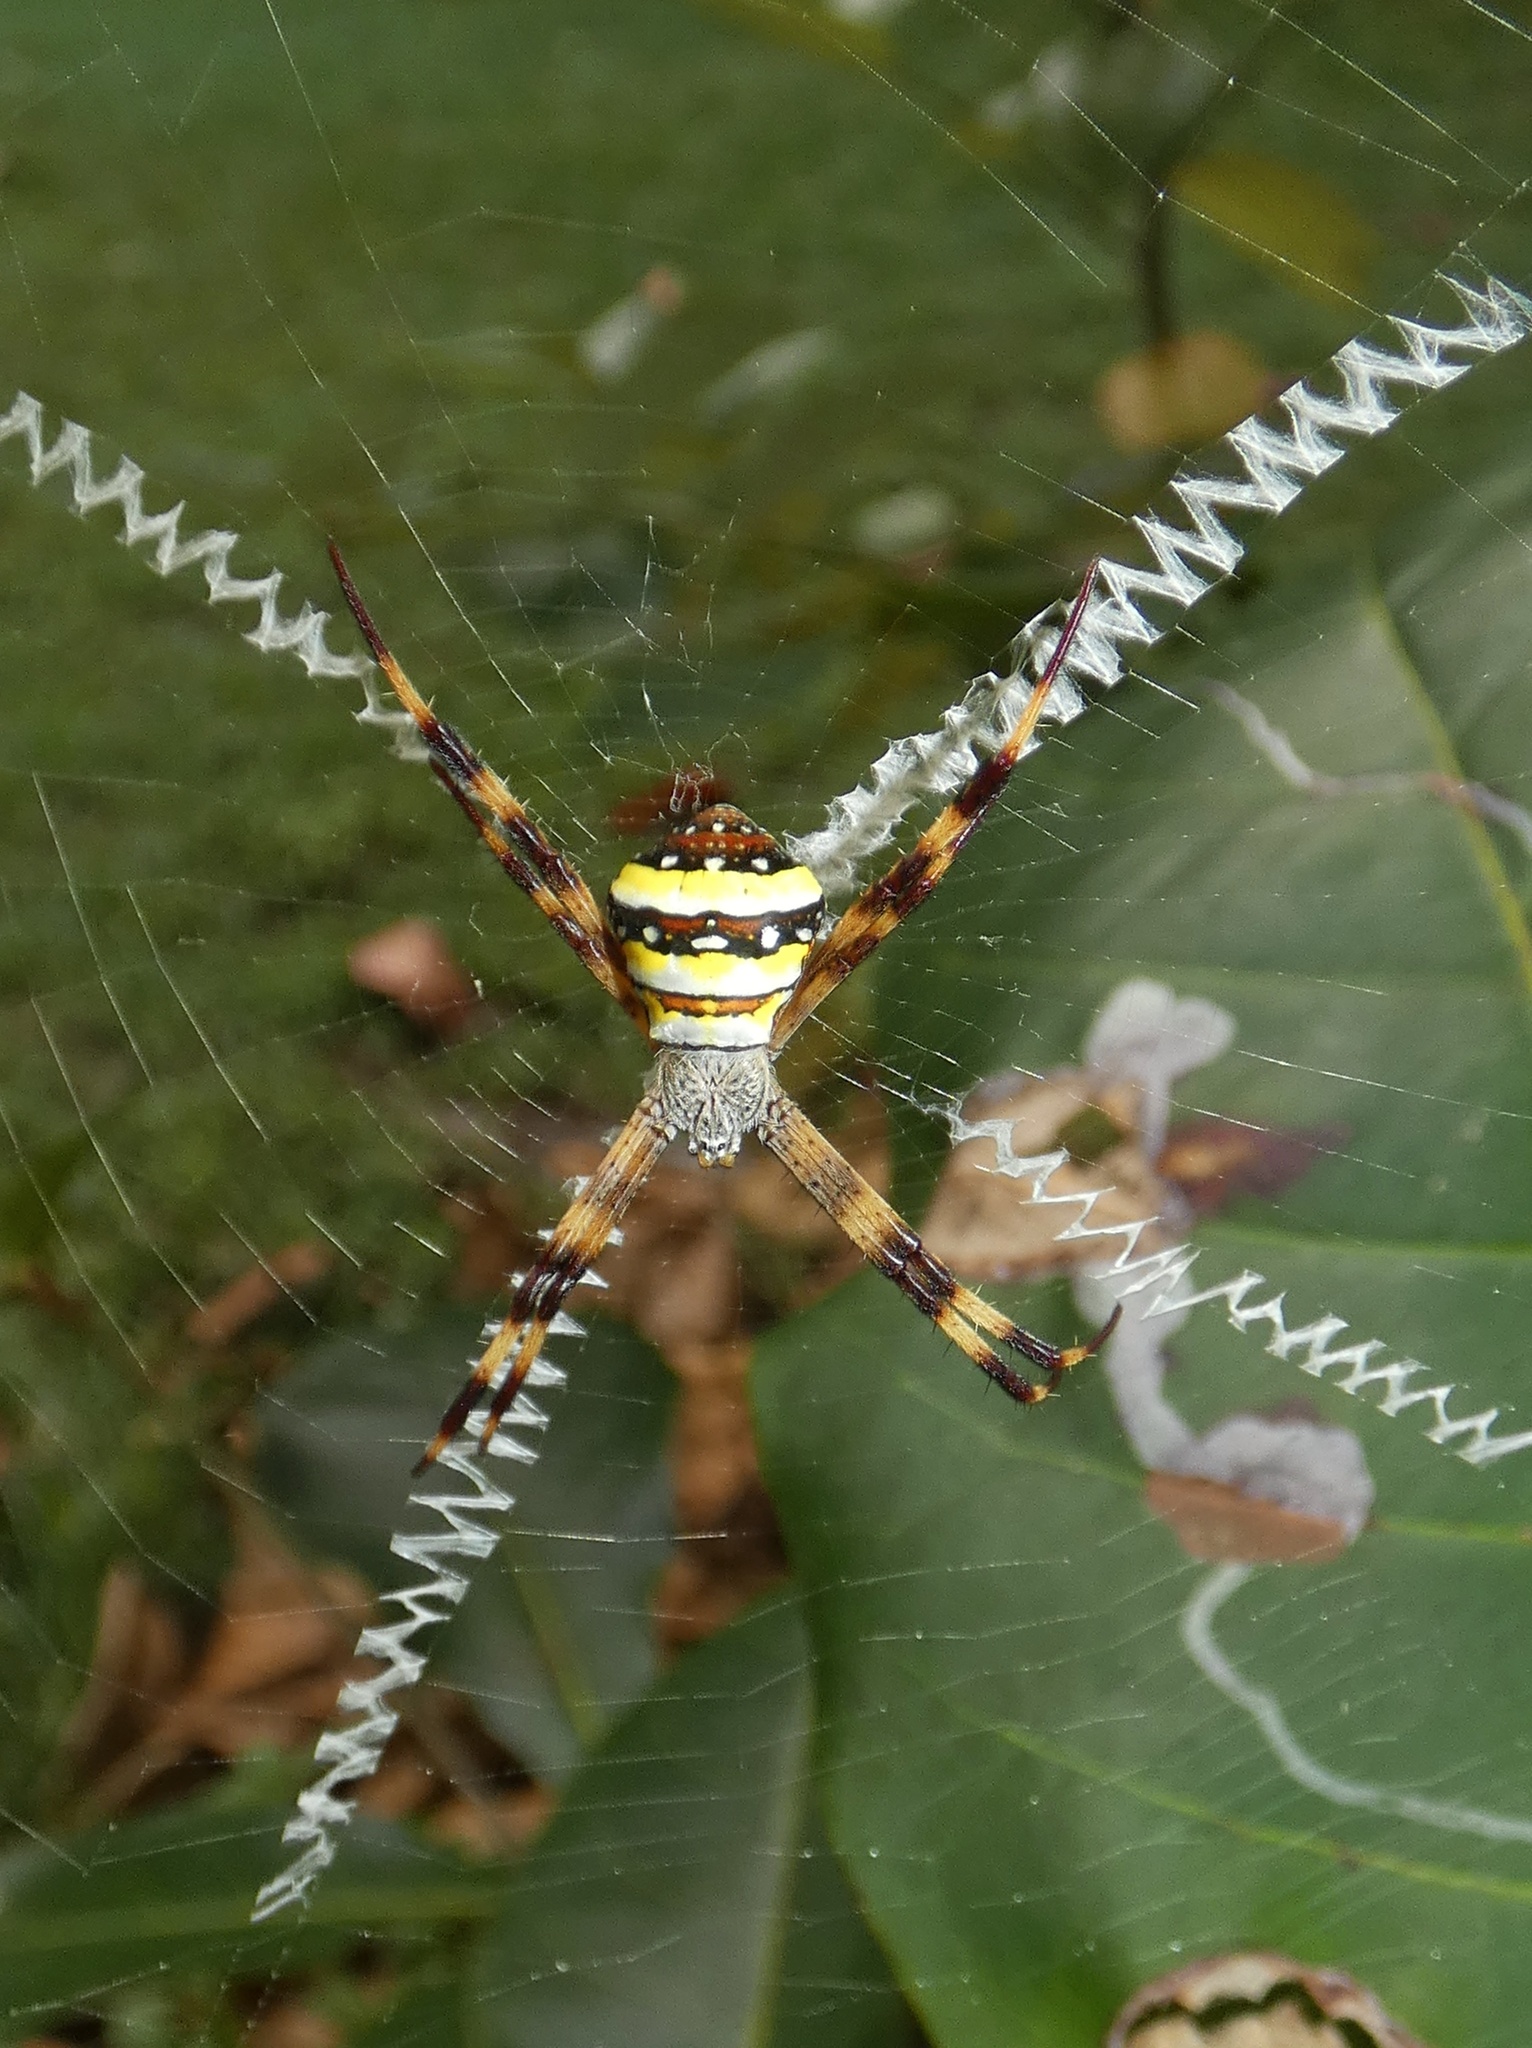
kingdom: Animalia
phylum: Arthropoda
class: Arachnida
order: Araneae
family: Araneidae
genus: Argiope
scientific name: Argiope aetherea
